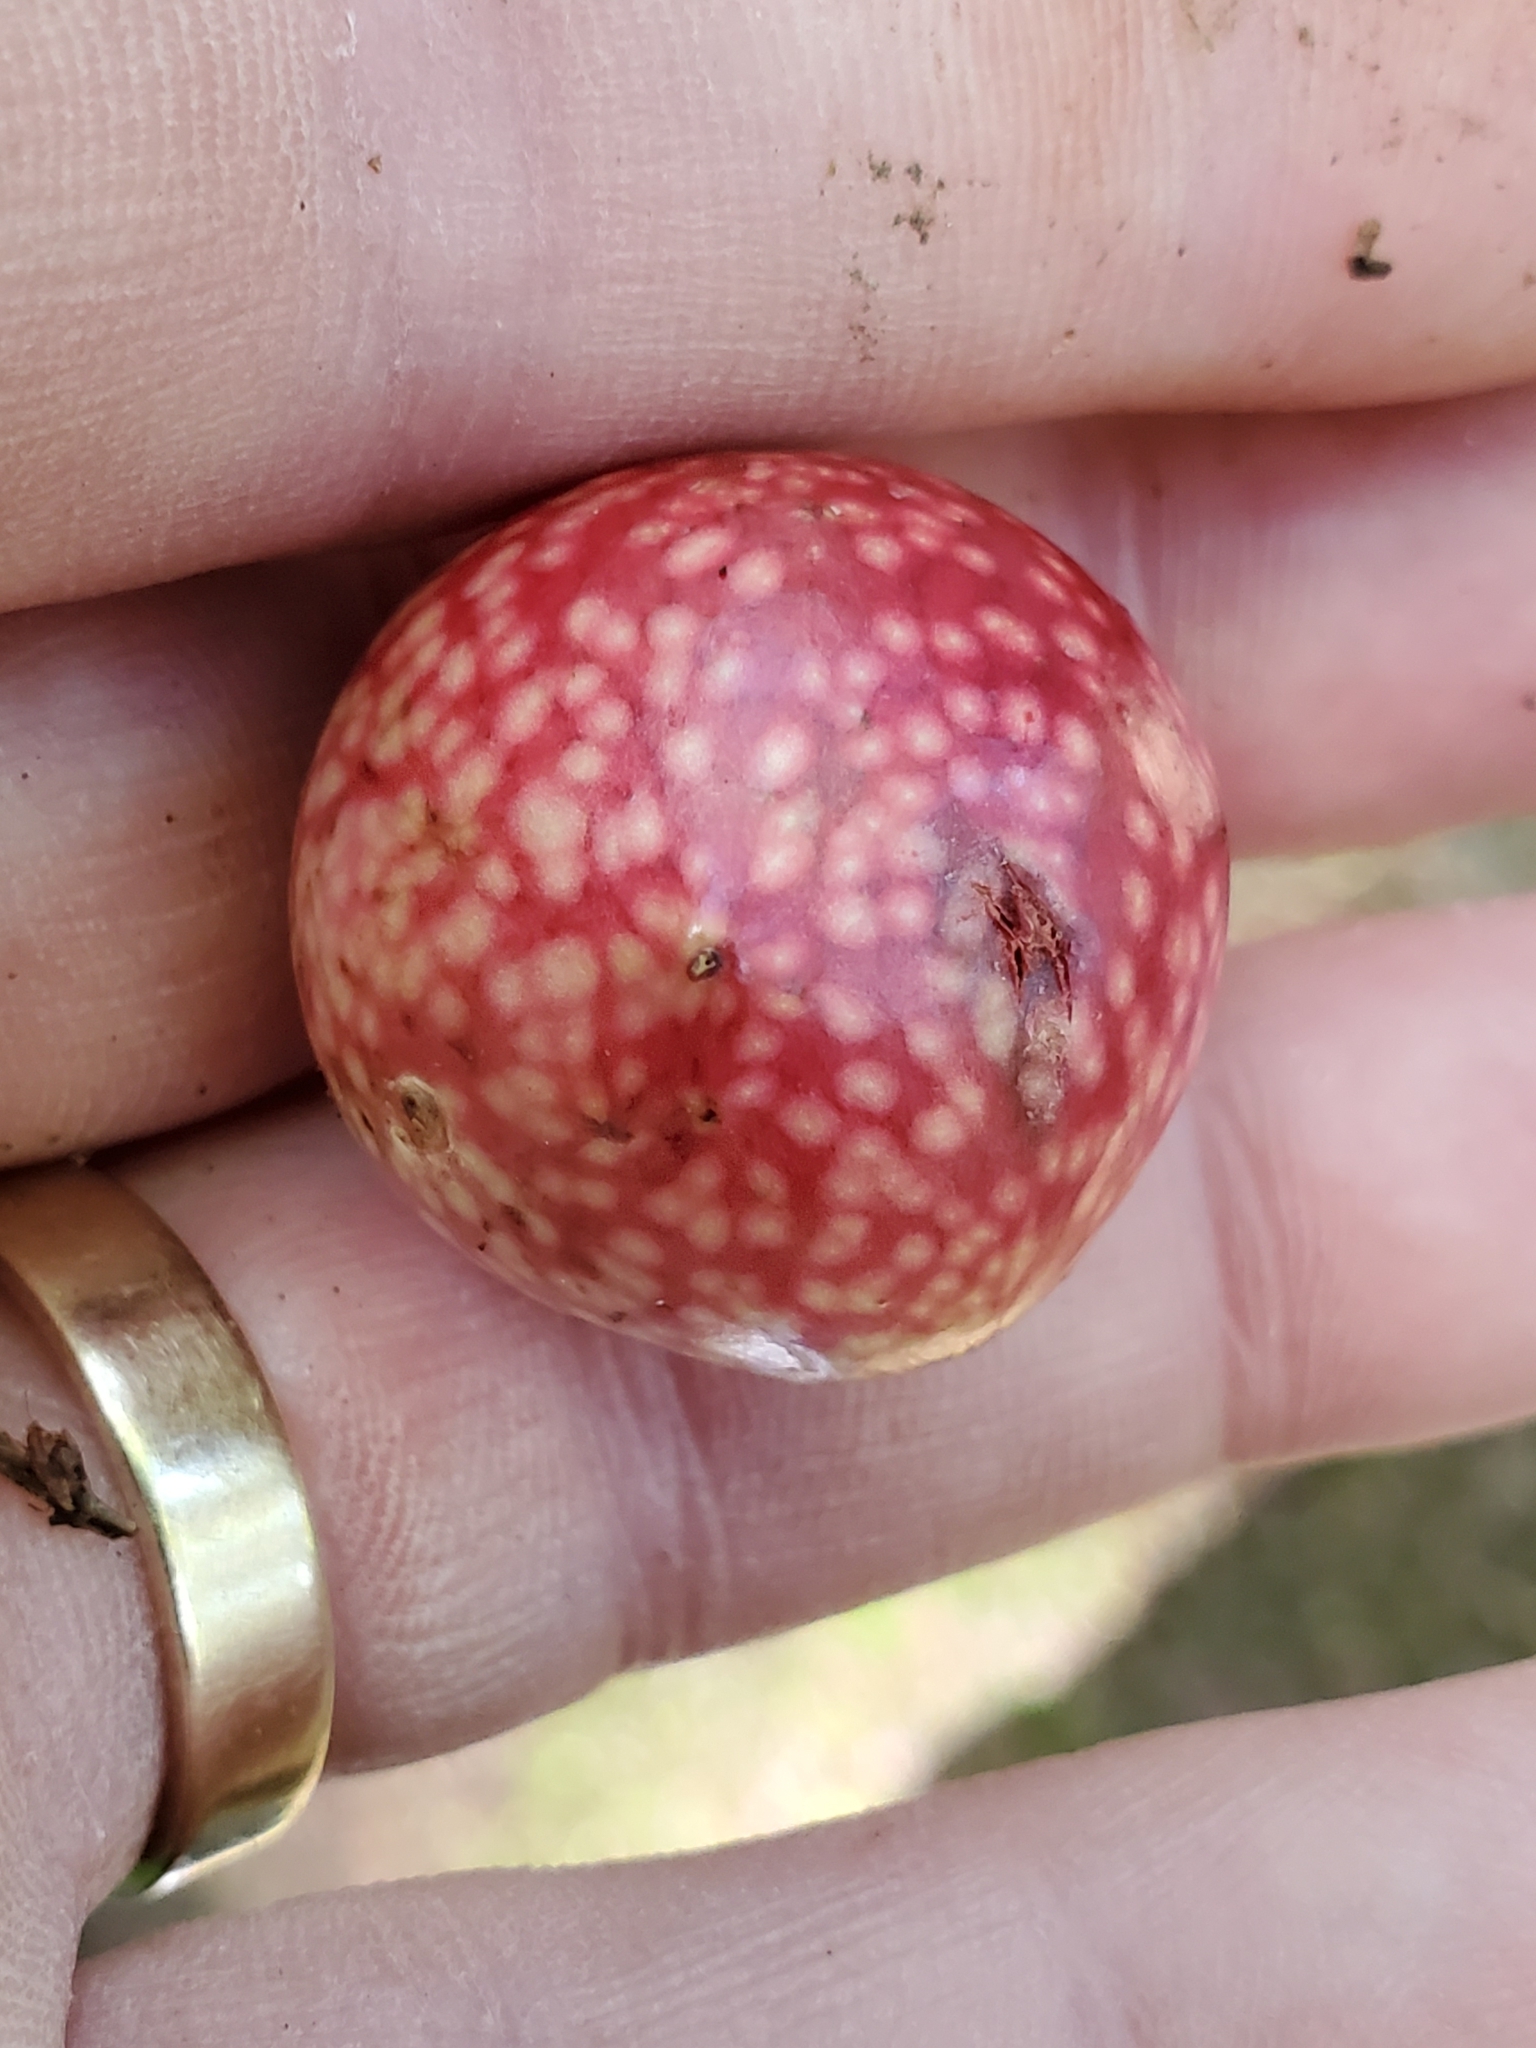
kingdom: Animalia
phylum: Arthropoda
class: Insecta
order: Hymenoptera
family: Cynipidae
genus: Amphibolips
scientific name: Amphibolips
